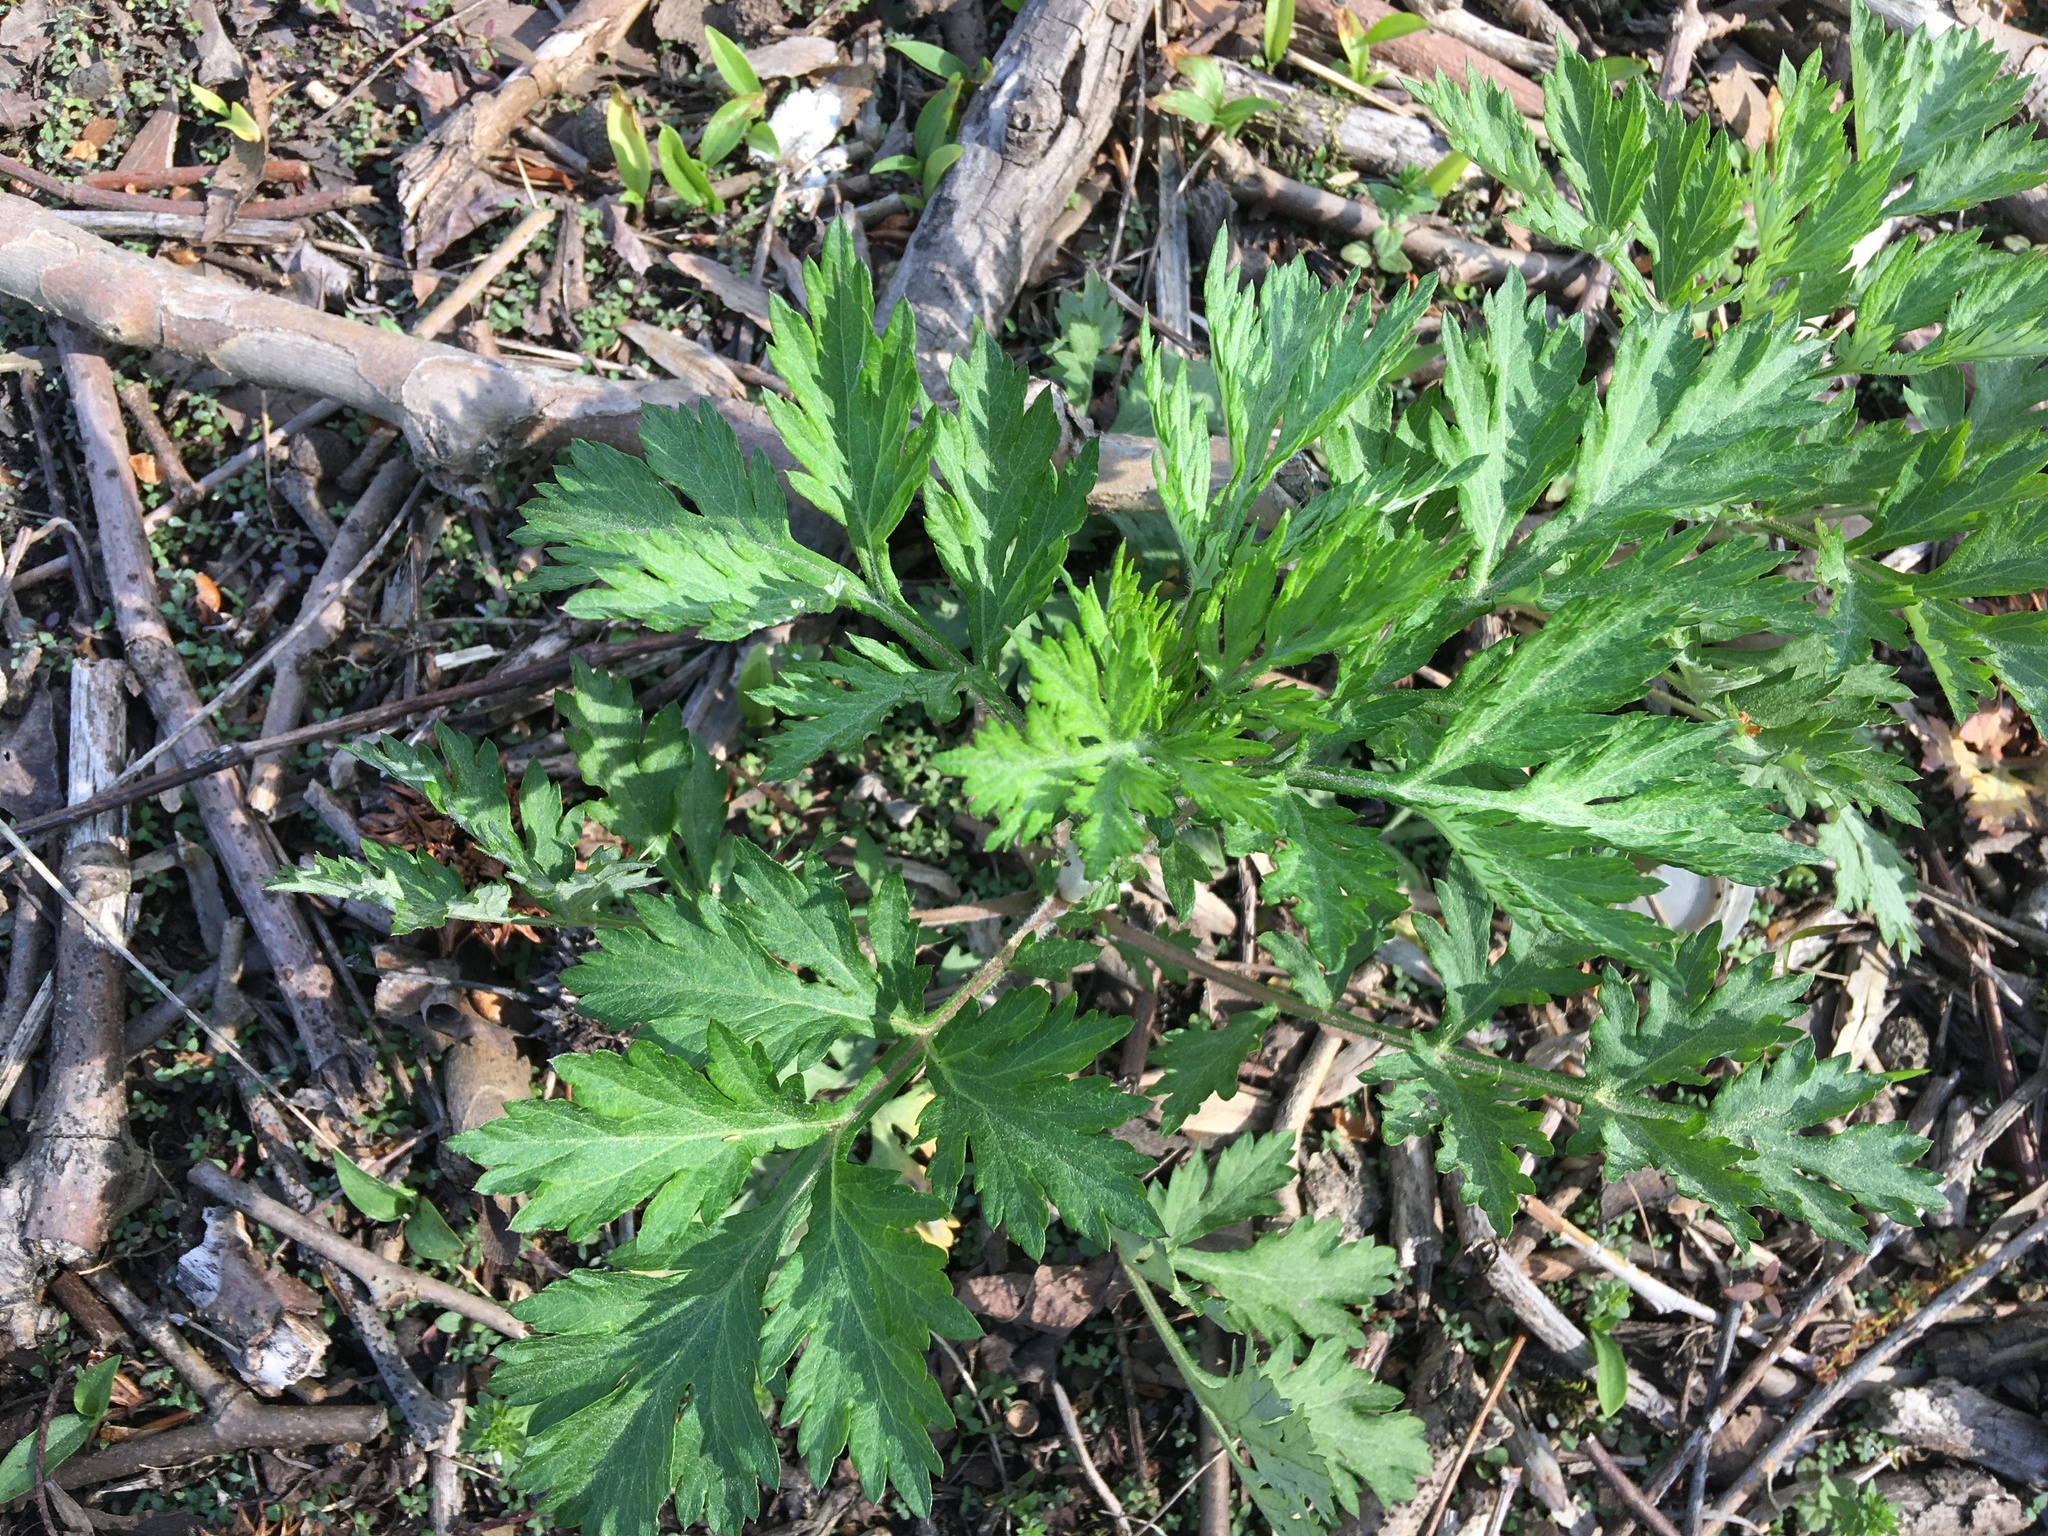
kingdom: Plantae
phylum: Tracheophyta
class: Magnoliopsida
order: Asterales
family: Asteraceae
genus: Artemisia
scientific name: Artemisia vulgaris
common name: Mugwort
